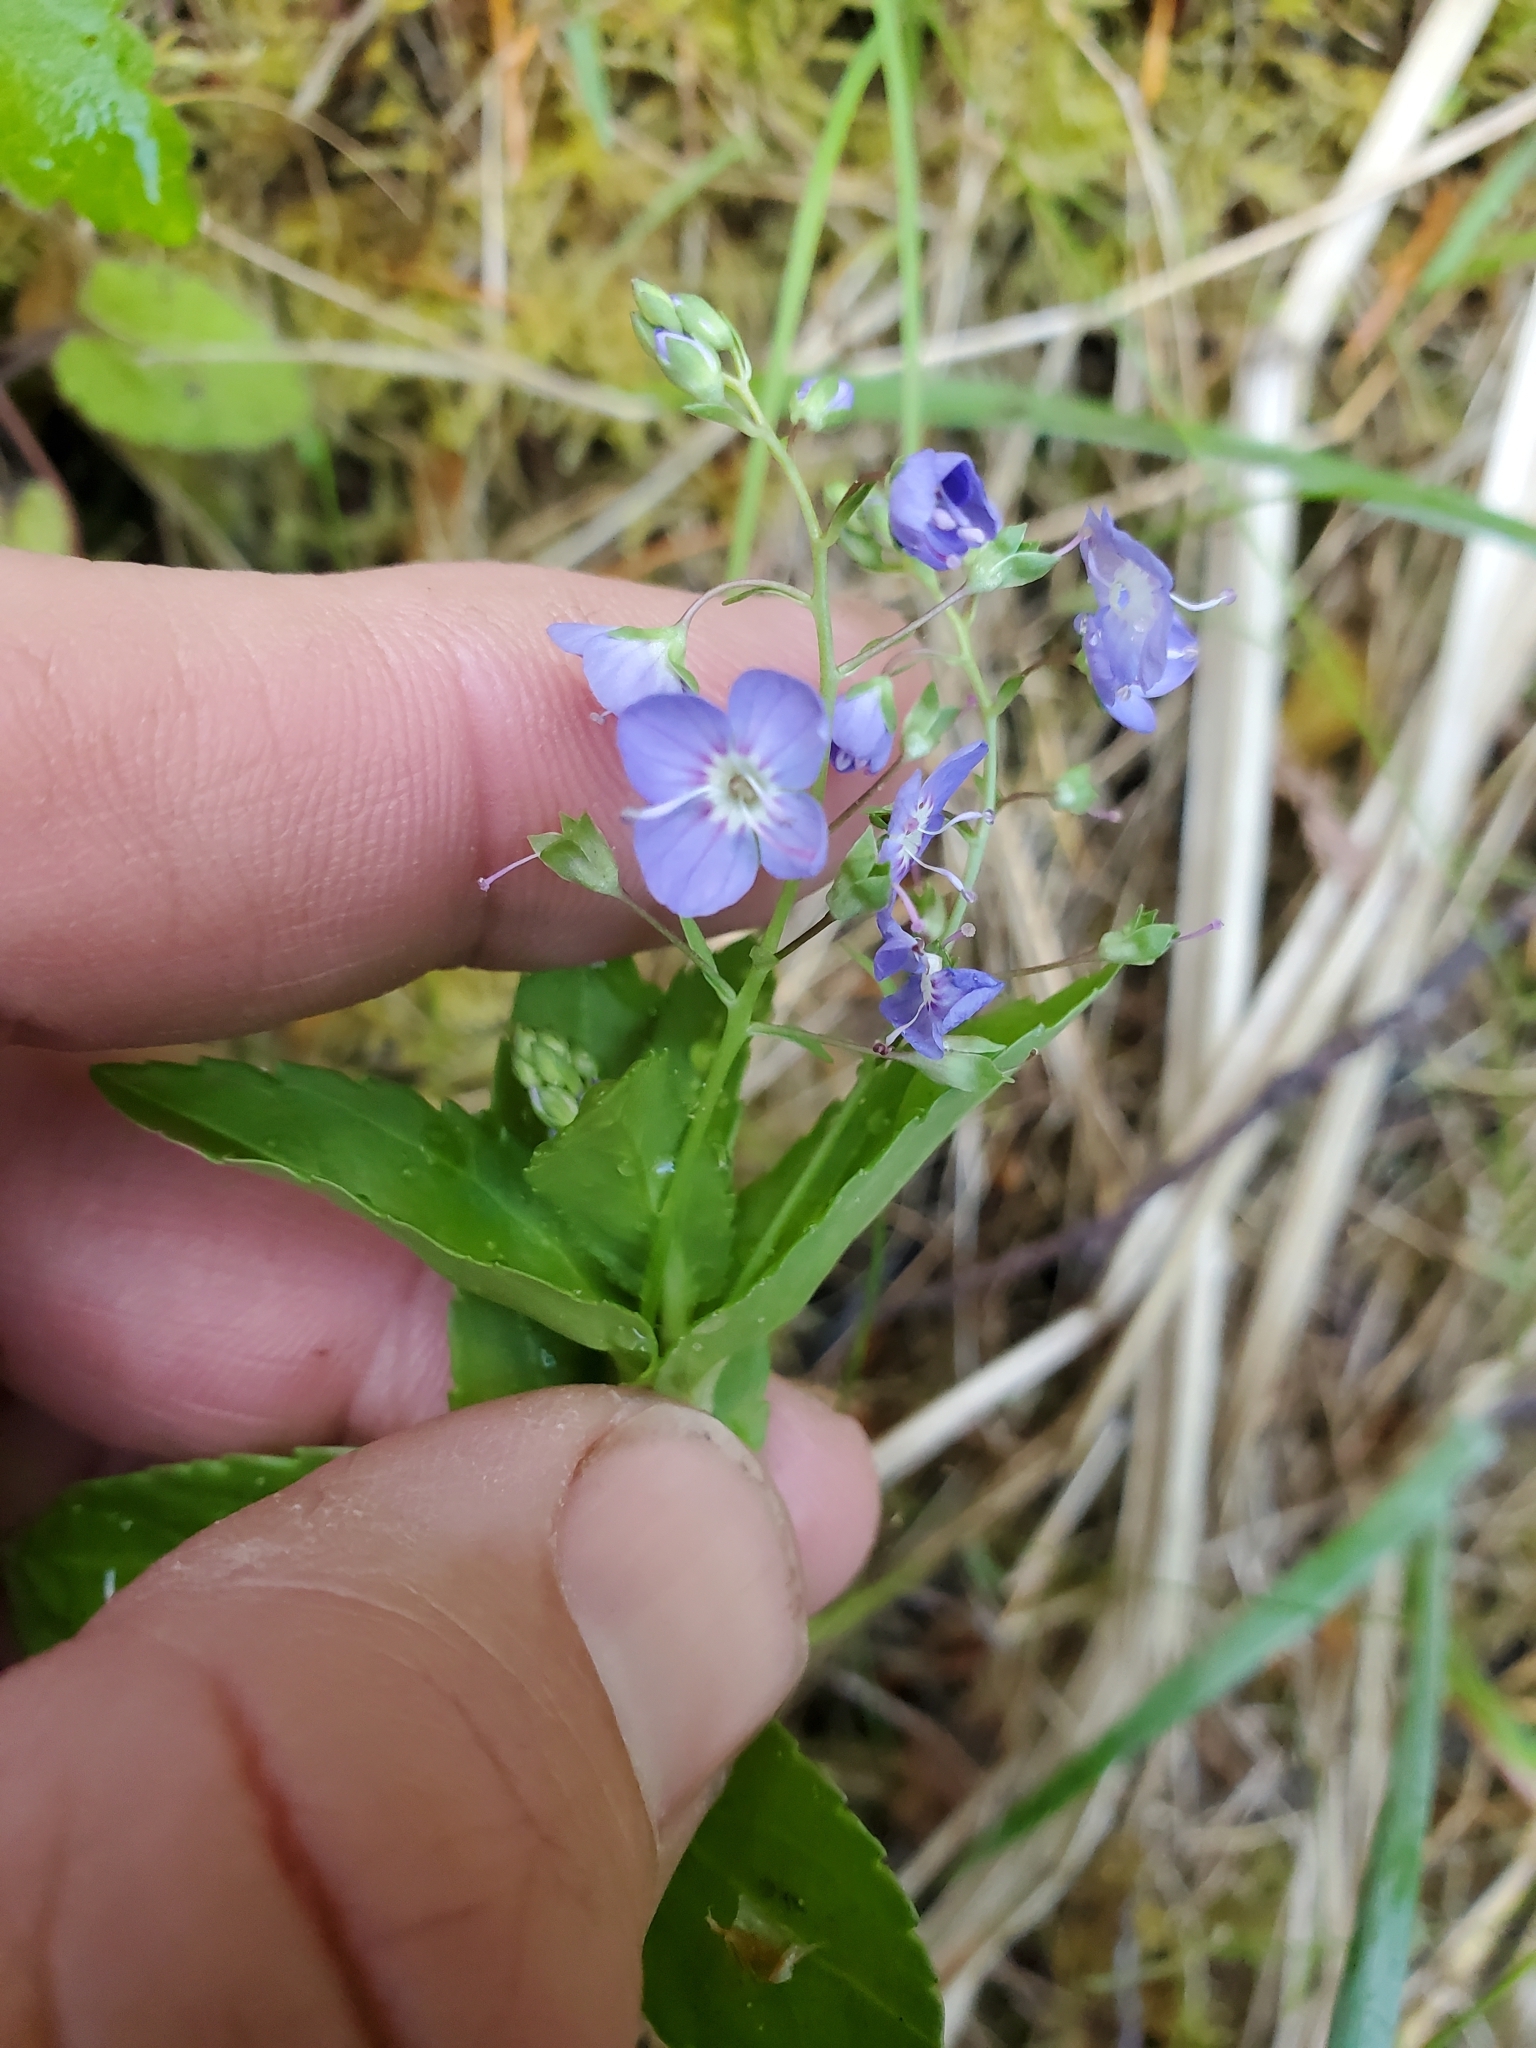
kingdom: Plantae
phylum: Tracheophyta
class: Magnoliopsida
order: Lamiales
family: Plantaginaceae
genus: Veronica
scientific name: Veronica americana
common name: American brooklime
